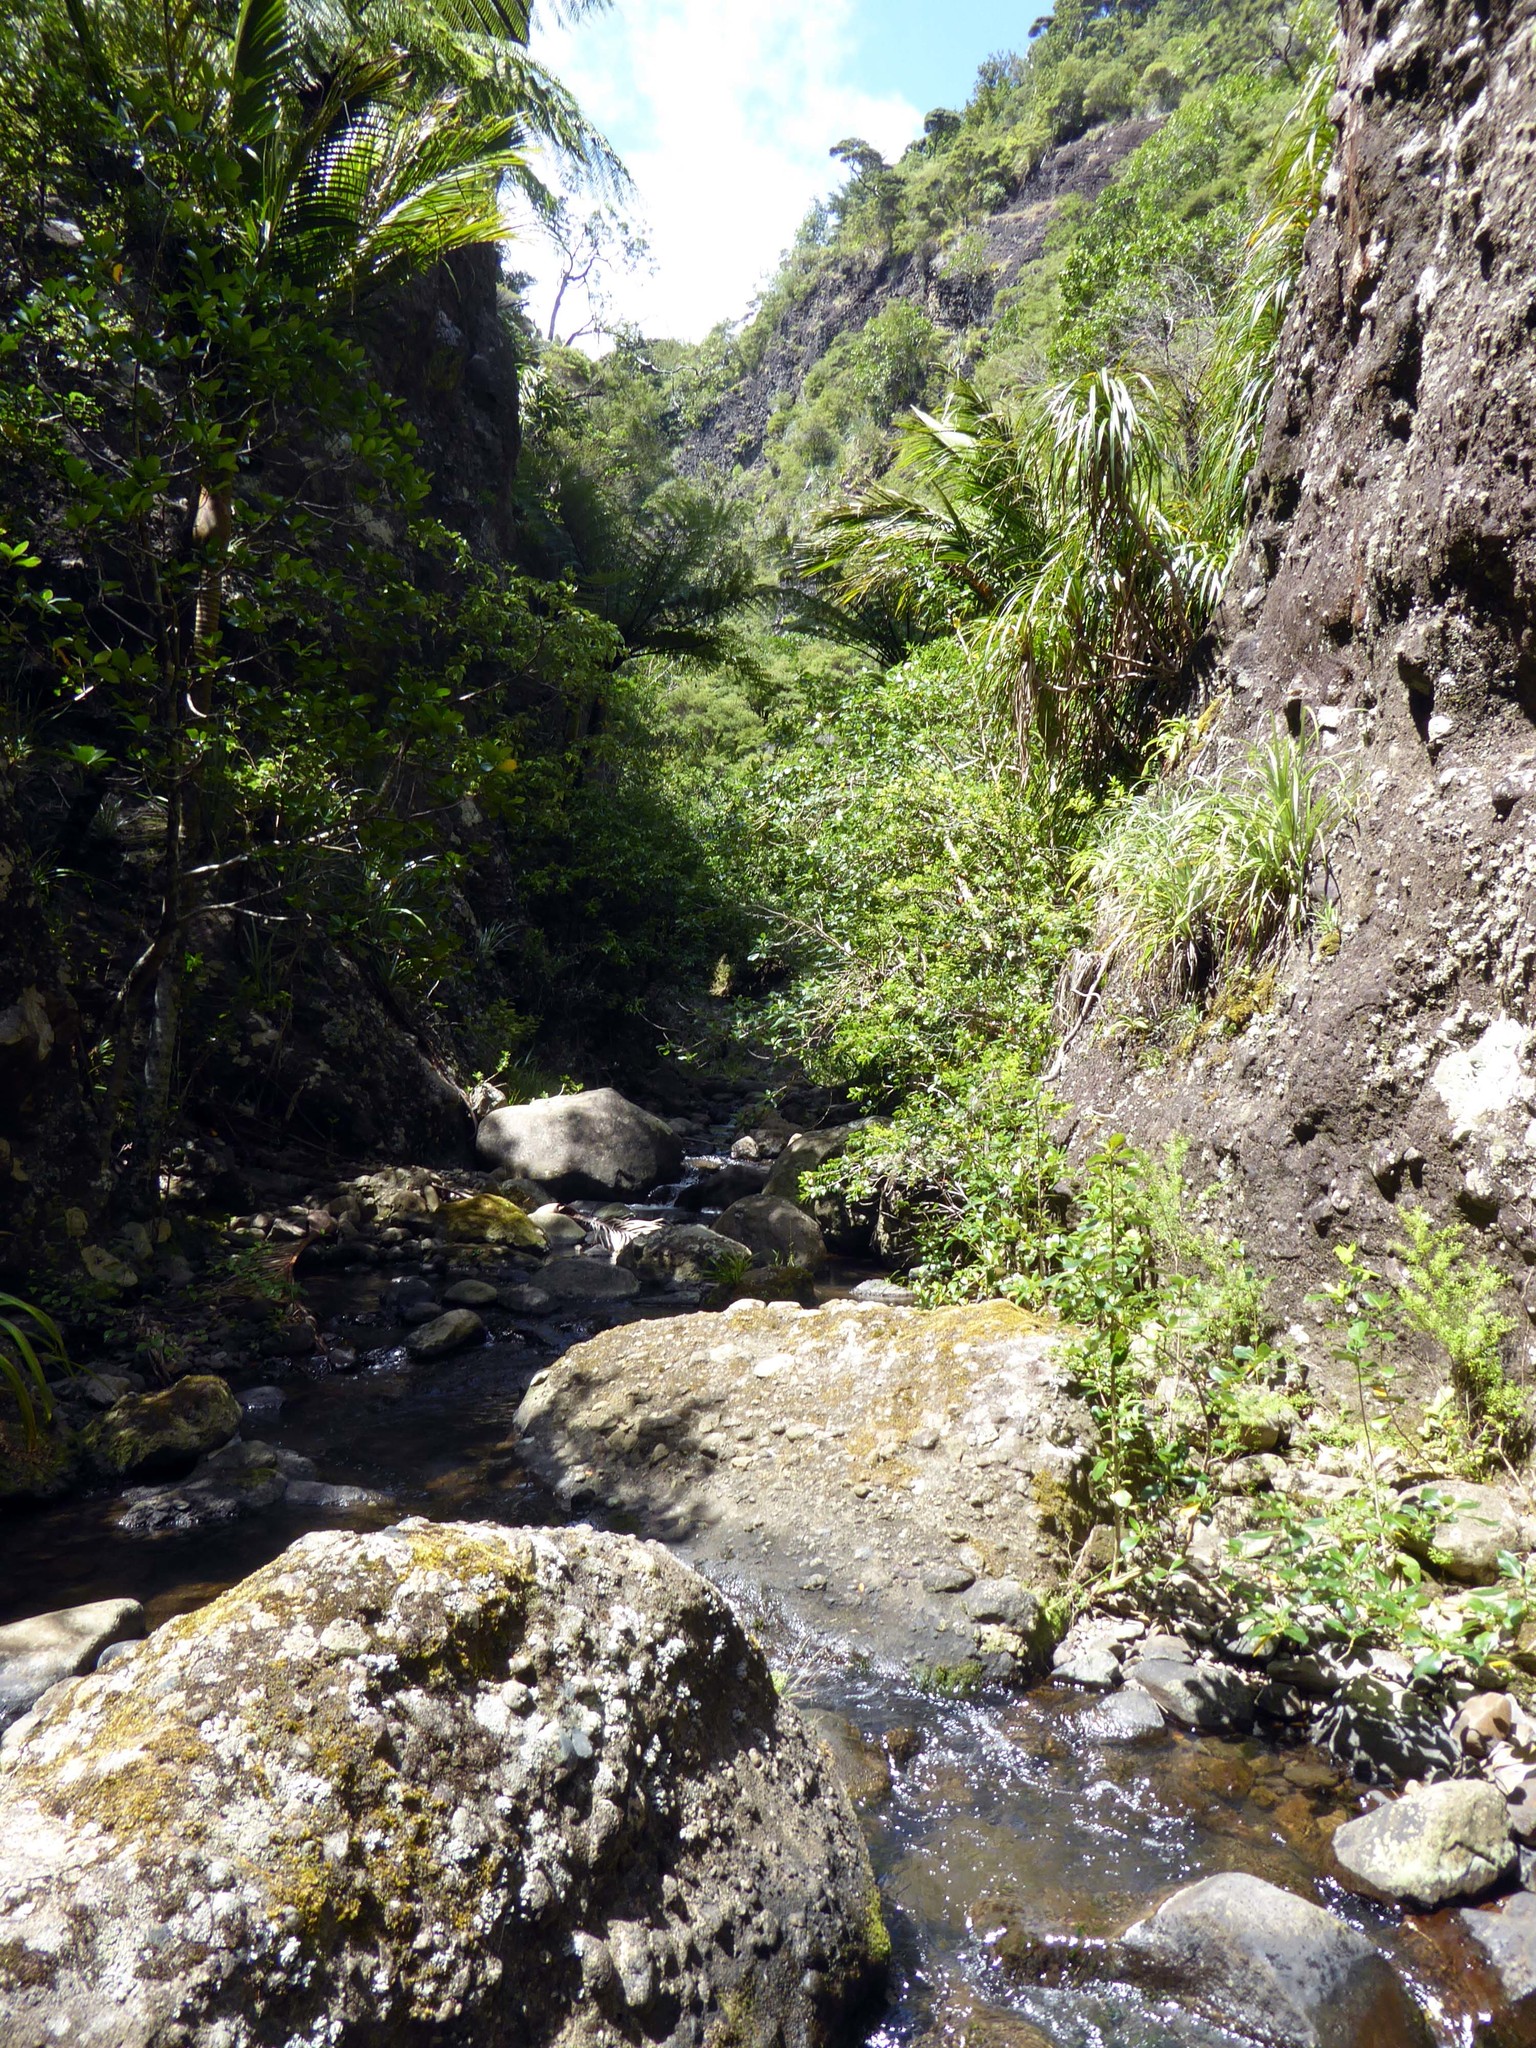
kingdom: Animalia
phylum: Arthropoda
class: Arachnida
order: Araneae
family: Pisauridae
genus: Dolomedes
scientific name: Dolomedes dondalei
